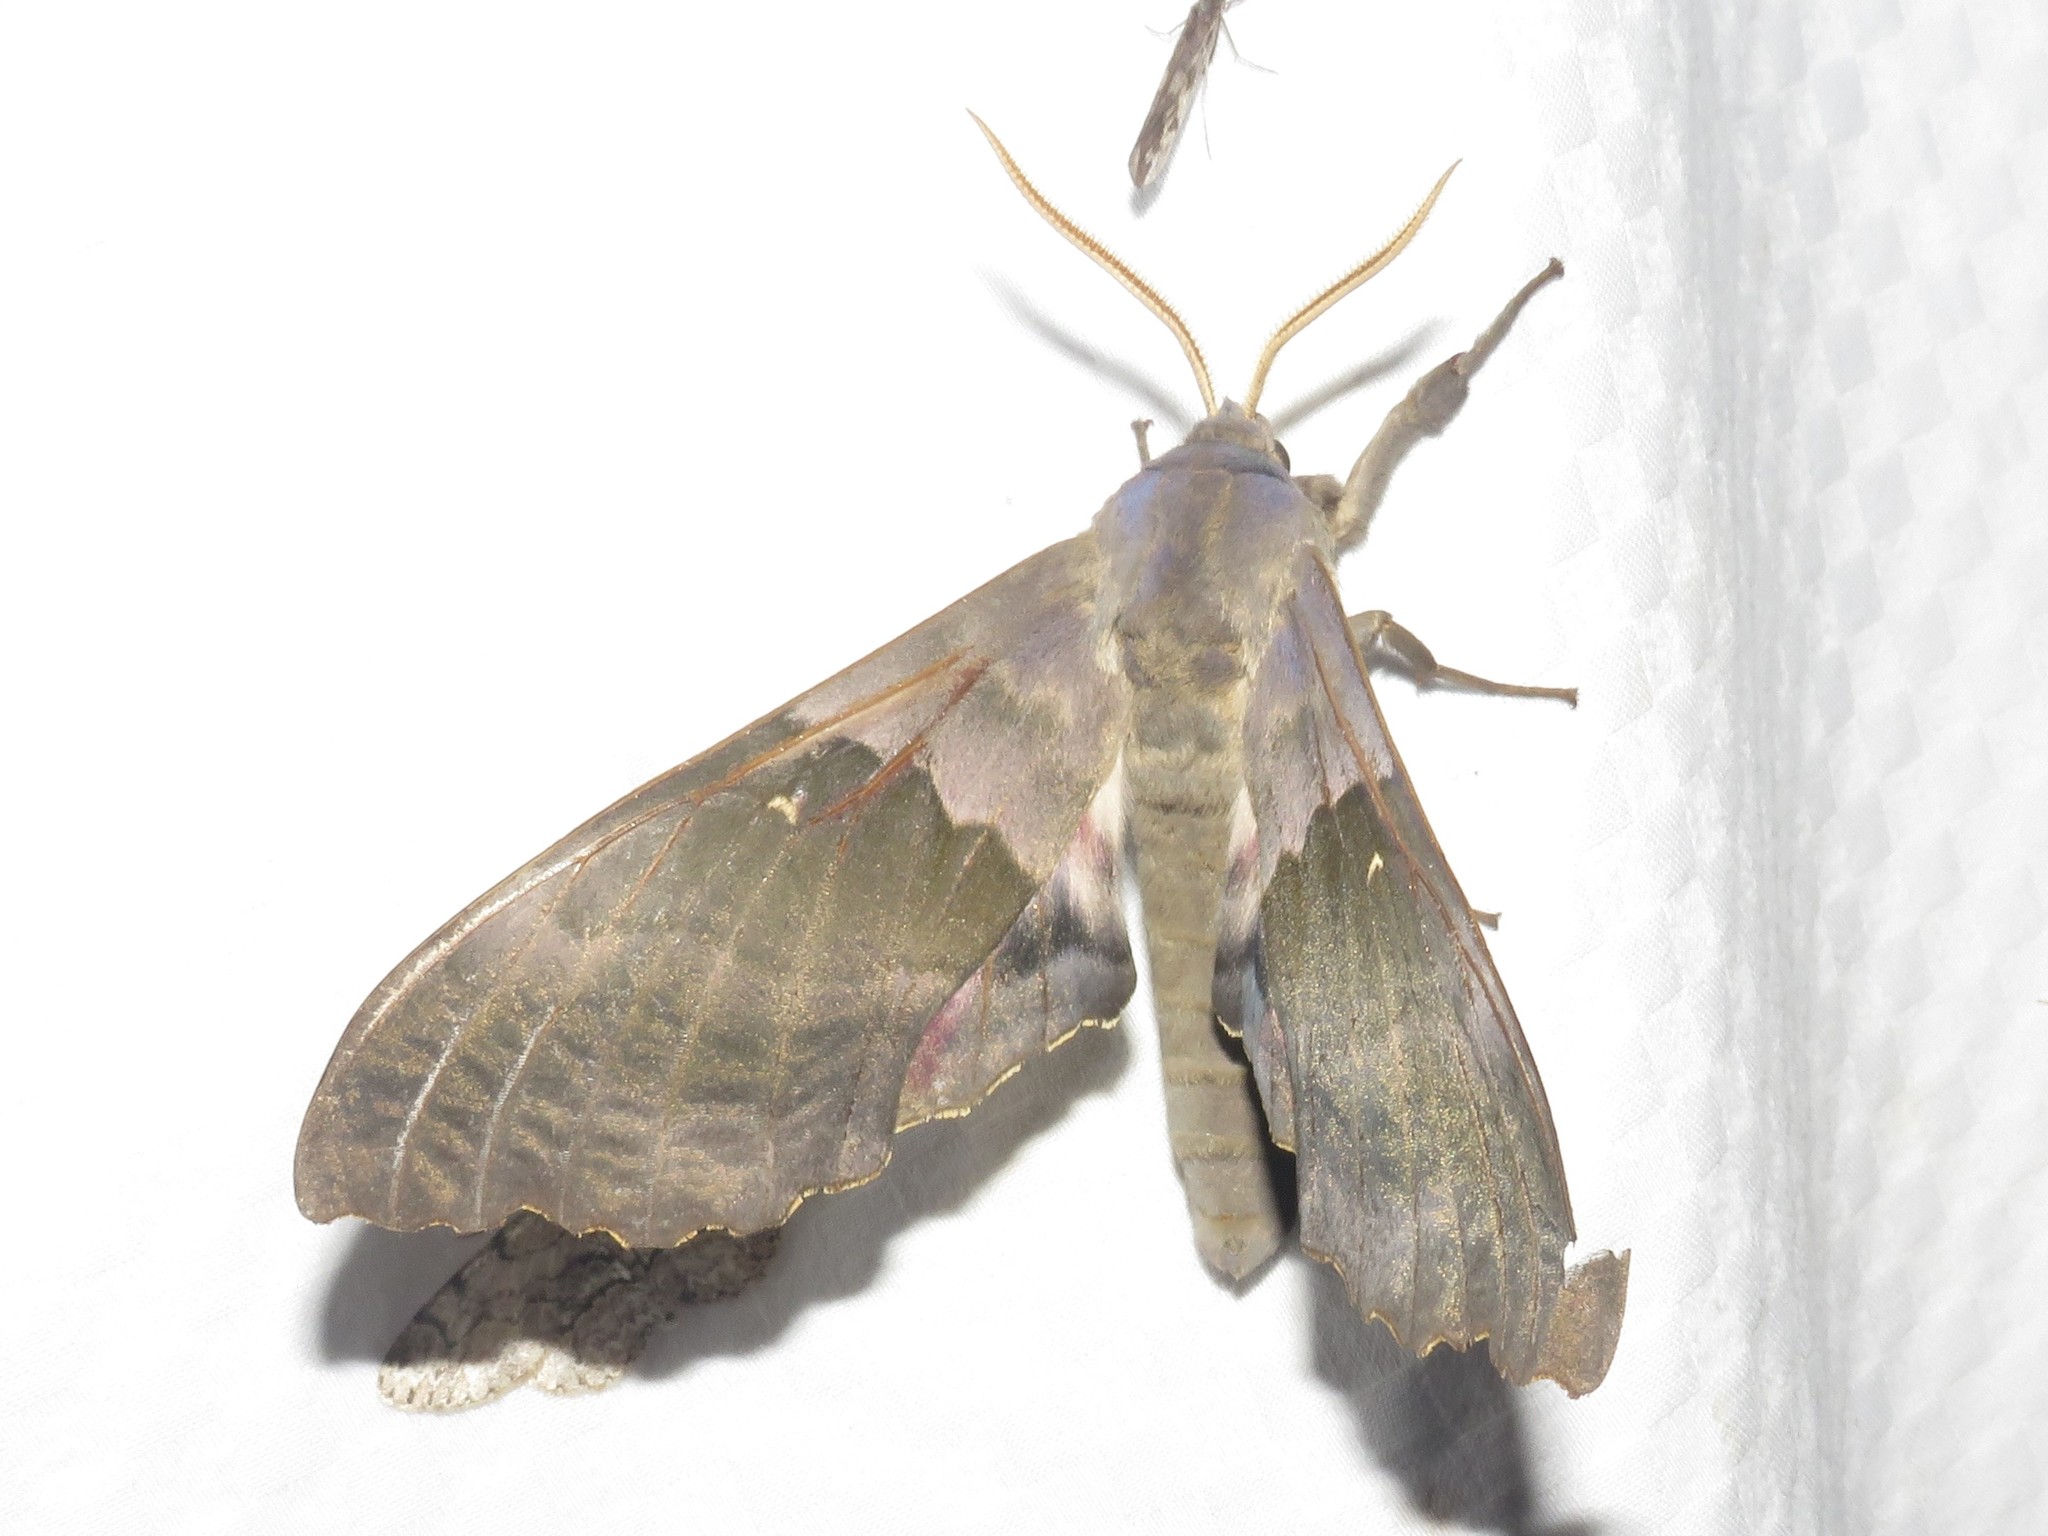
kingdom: Animalia
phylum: Arthropoda
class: Insecta
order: Lepidoptera
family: Sphingidae
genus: Pachysphinx
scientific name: Pachysphinx modesta
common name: Big poplar sphinx
